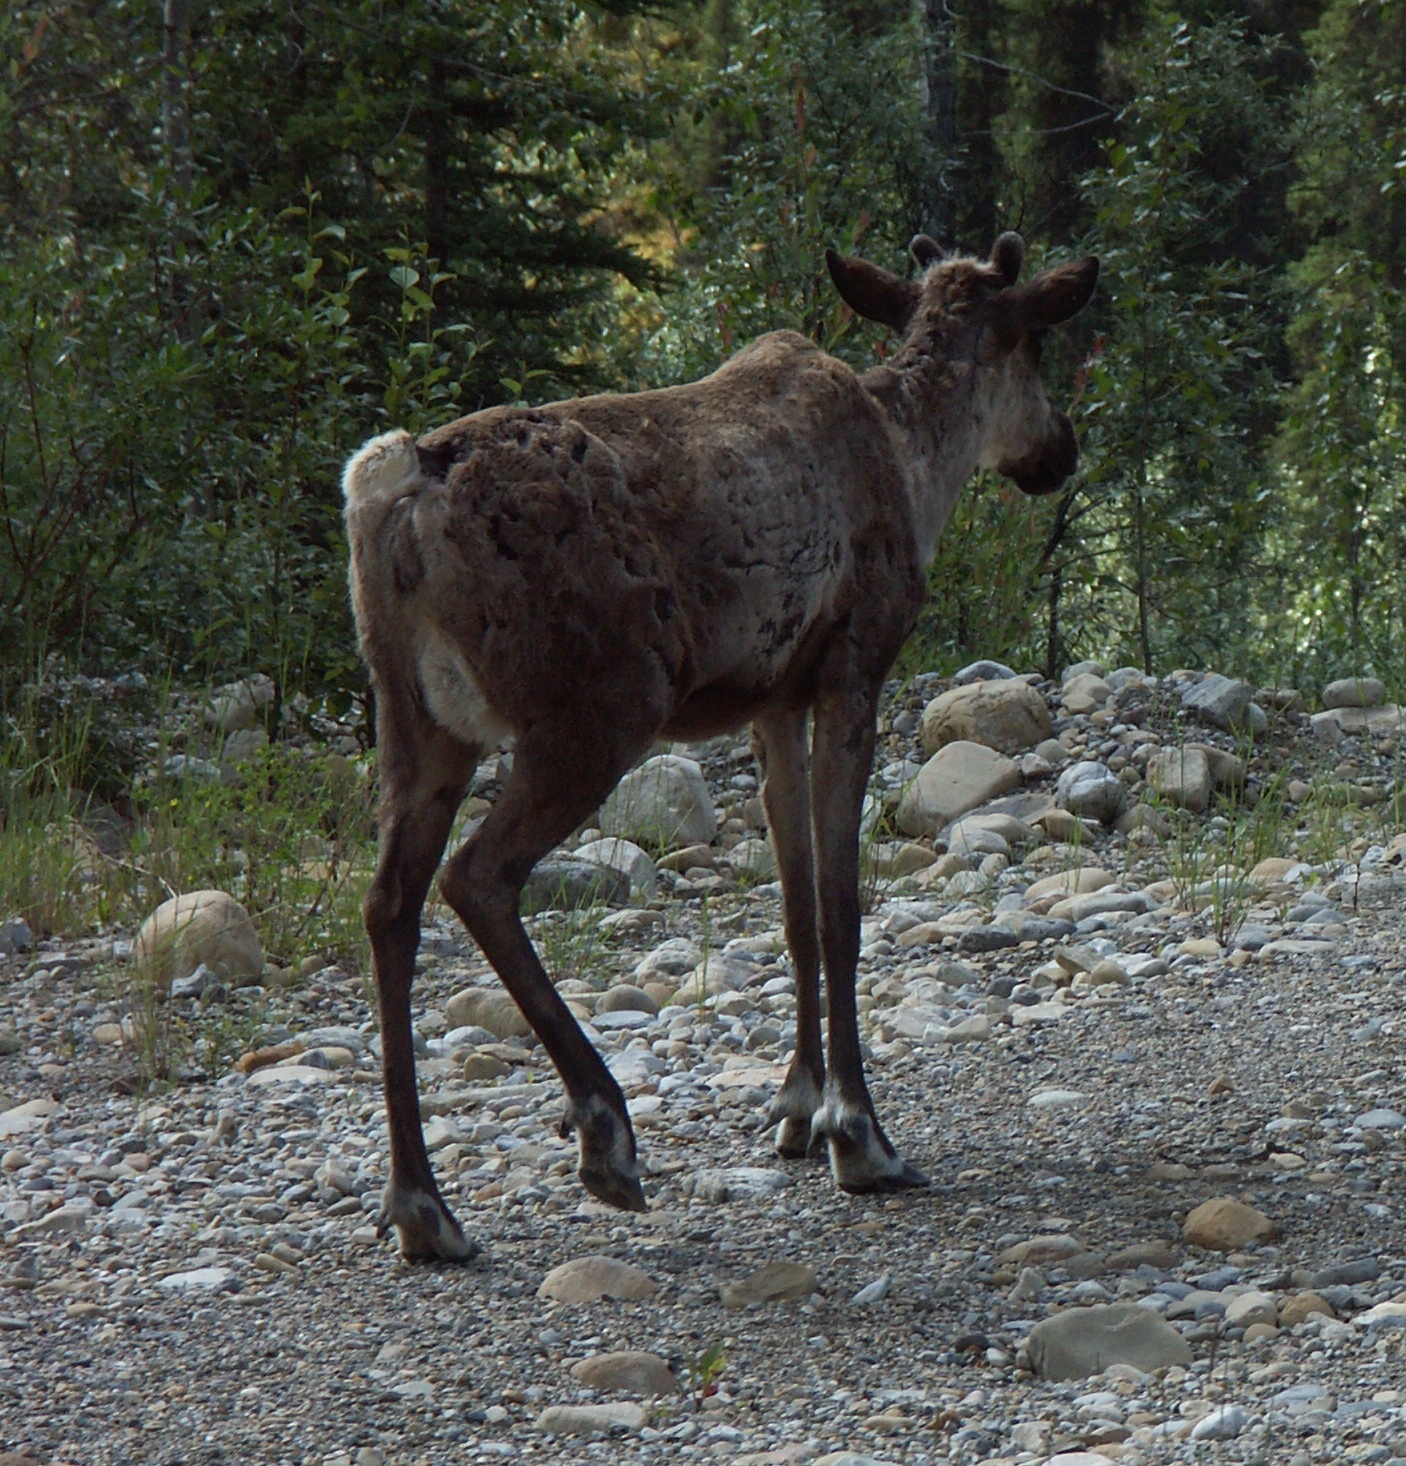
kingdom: Animalia
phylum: Chordata
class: Mammalia
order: Artiodactyla
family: Cervidae
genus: Rangifer
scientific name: Rangifer tarandus
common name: Reindeer
